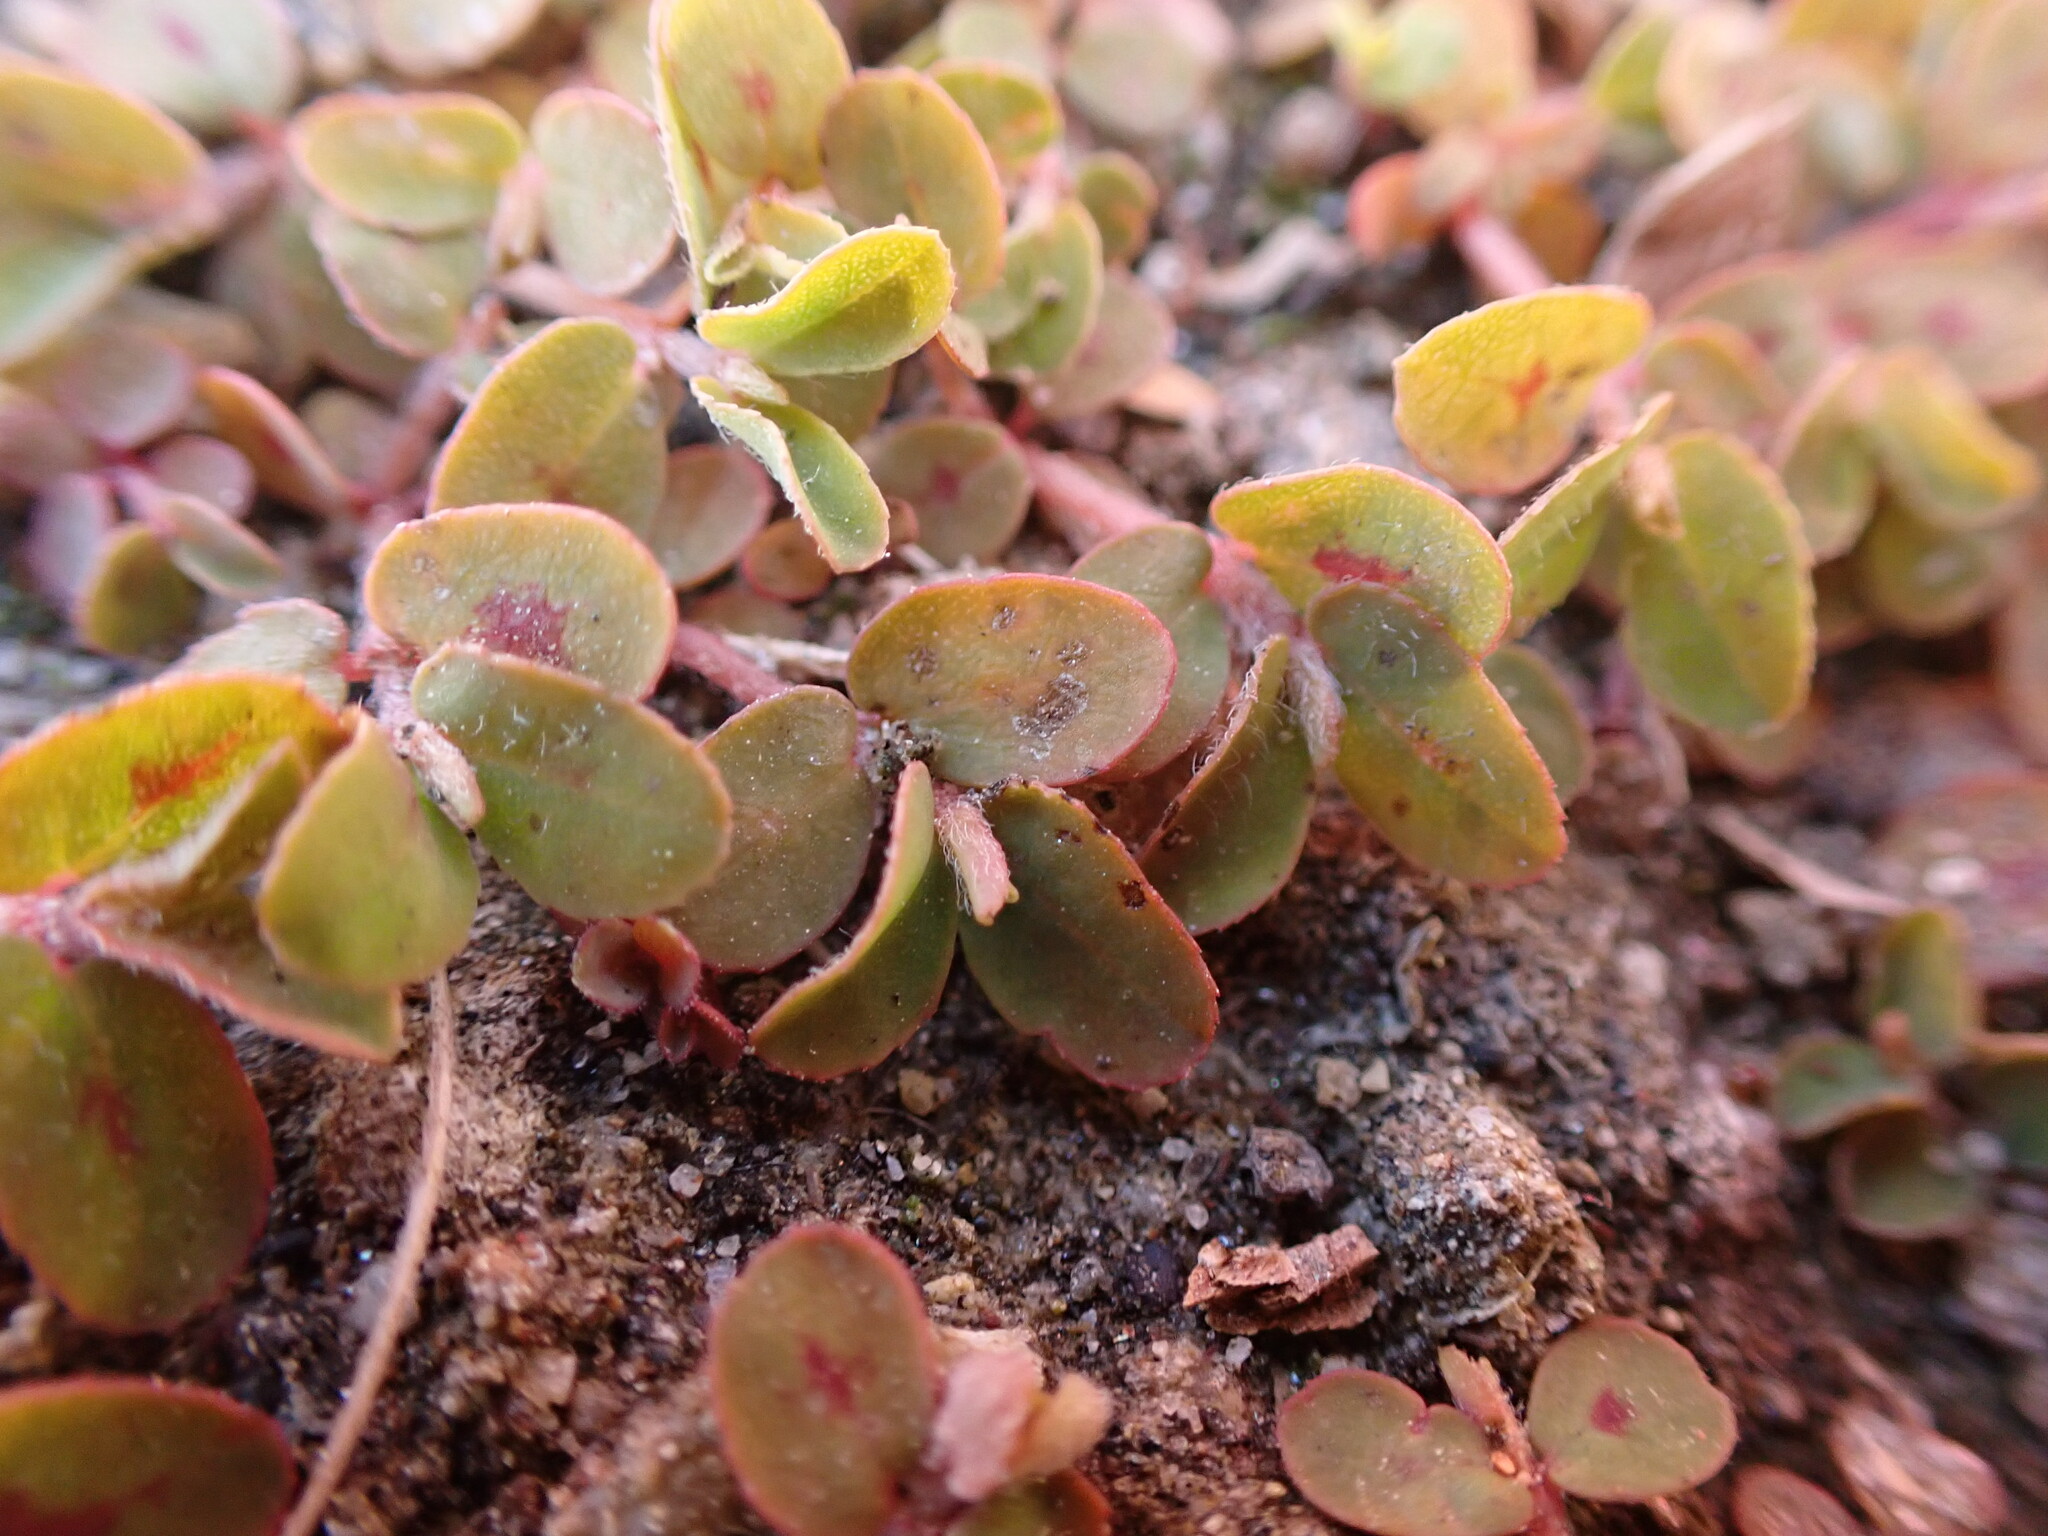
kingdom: Plantae
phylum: Tracheophyta
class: Magnoliopsida
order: Malpighiales
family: Euphorbiaceae
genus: Euphorbia
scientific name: Euphorbia maculata
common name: Spotted spurge
